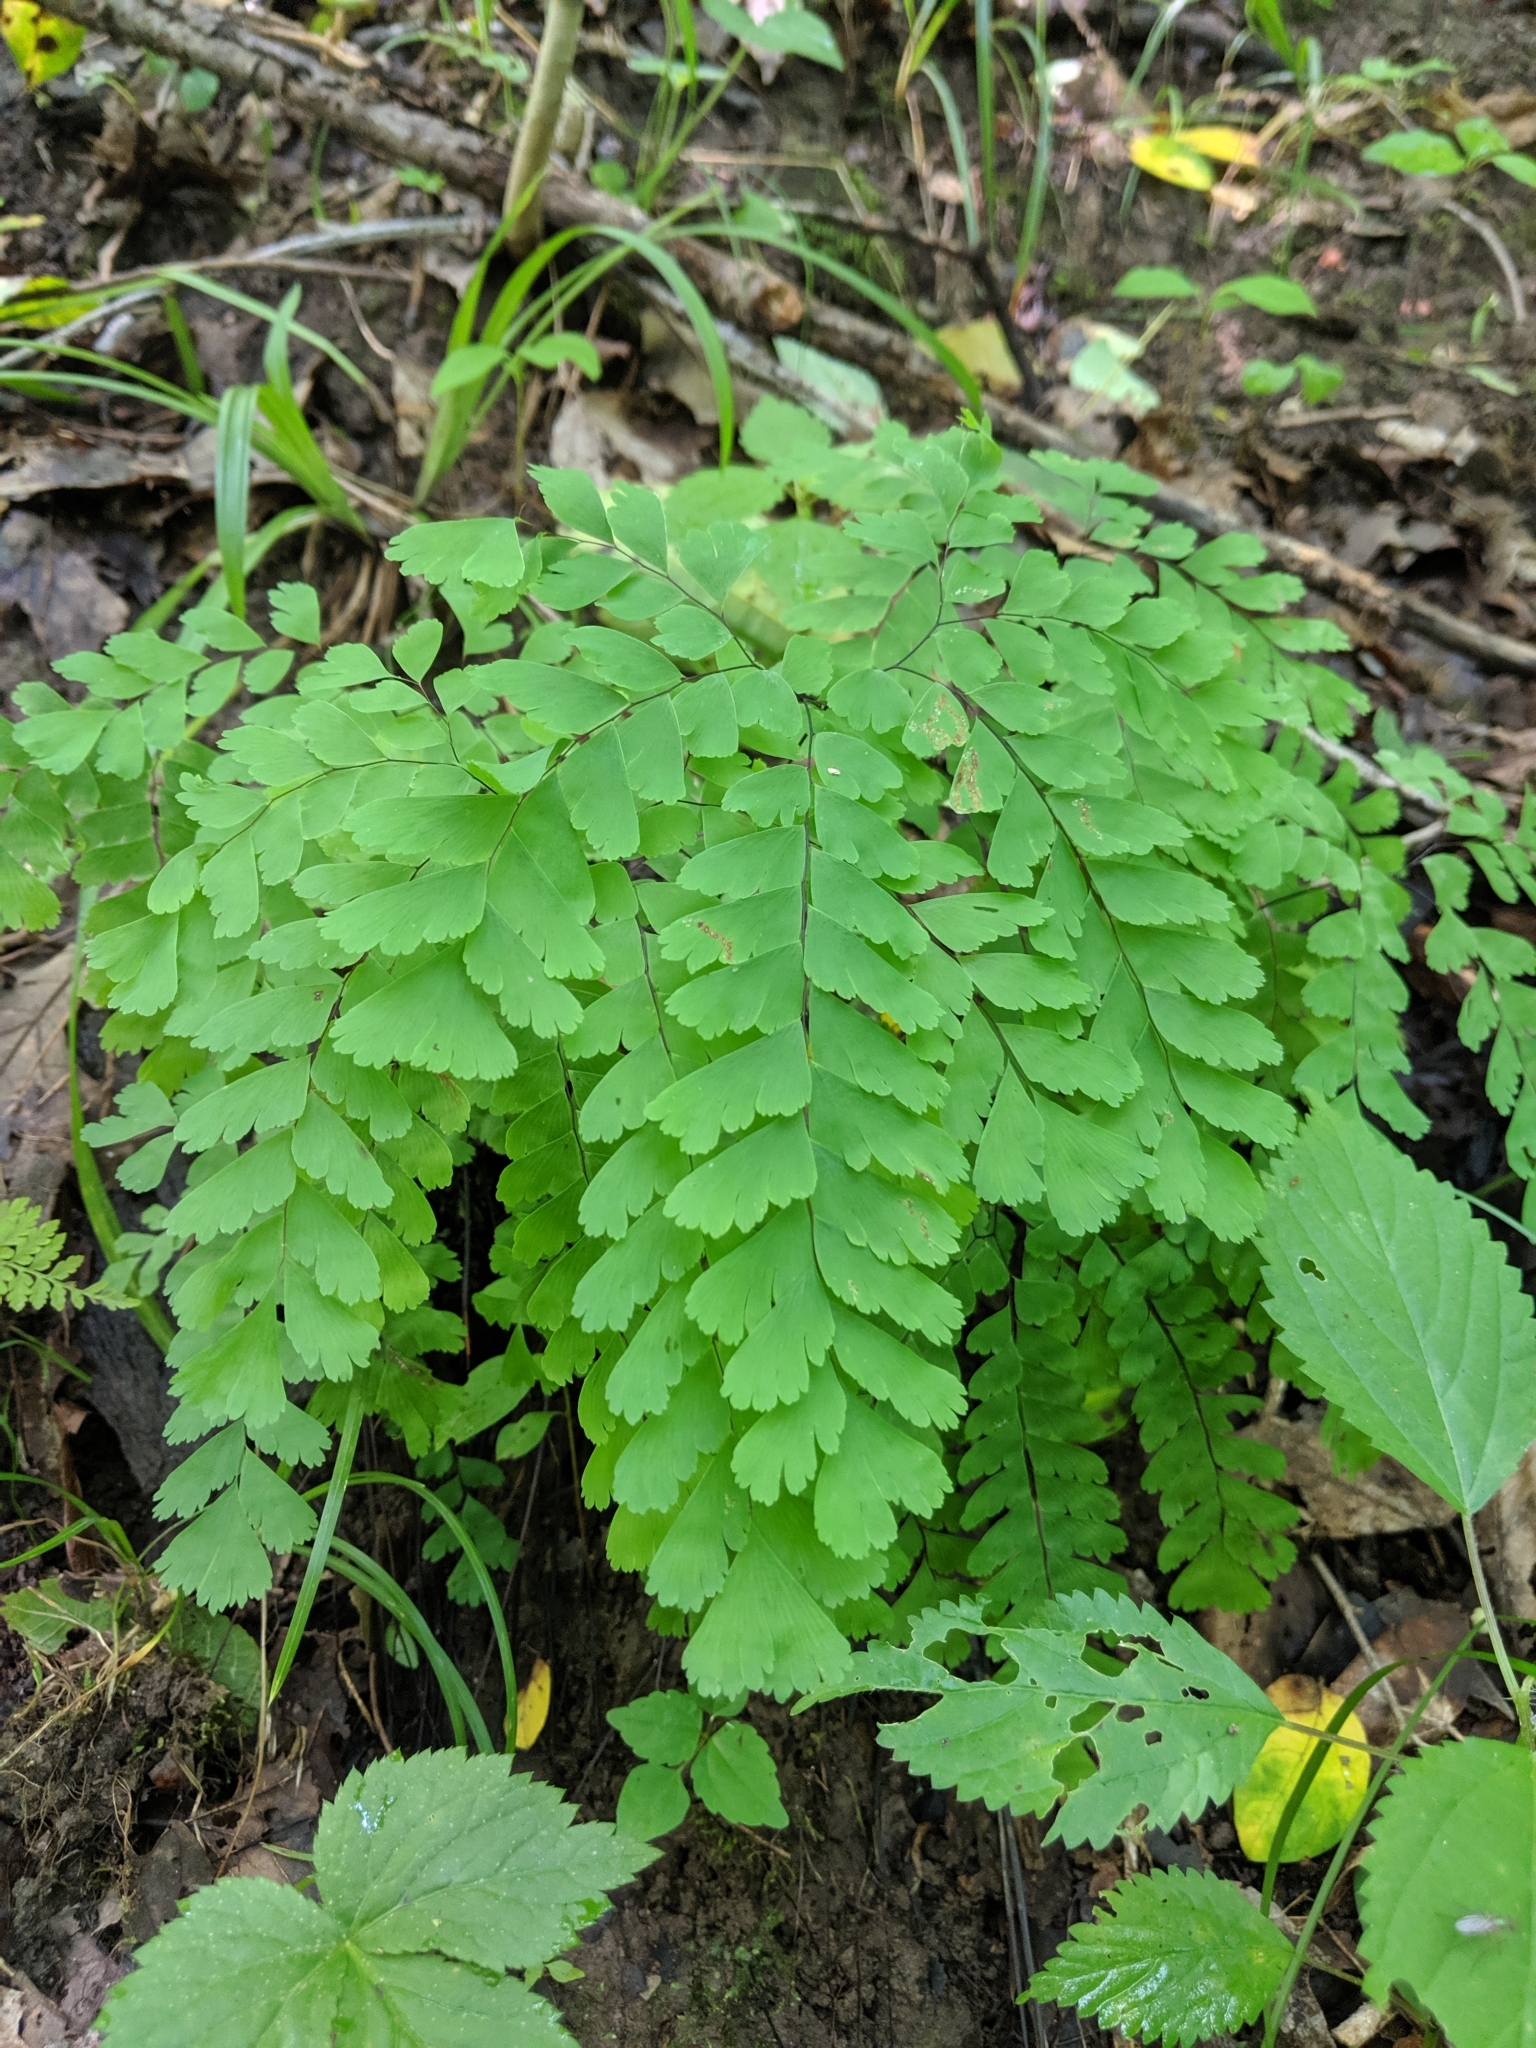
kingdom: Plantae
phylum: Tracheophyta
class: Polypodiopsida
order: Polypodiales
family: Pteridaceae
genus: Adiantum
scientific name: Adiantum pedatum
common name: Five-finger fern
